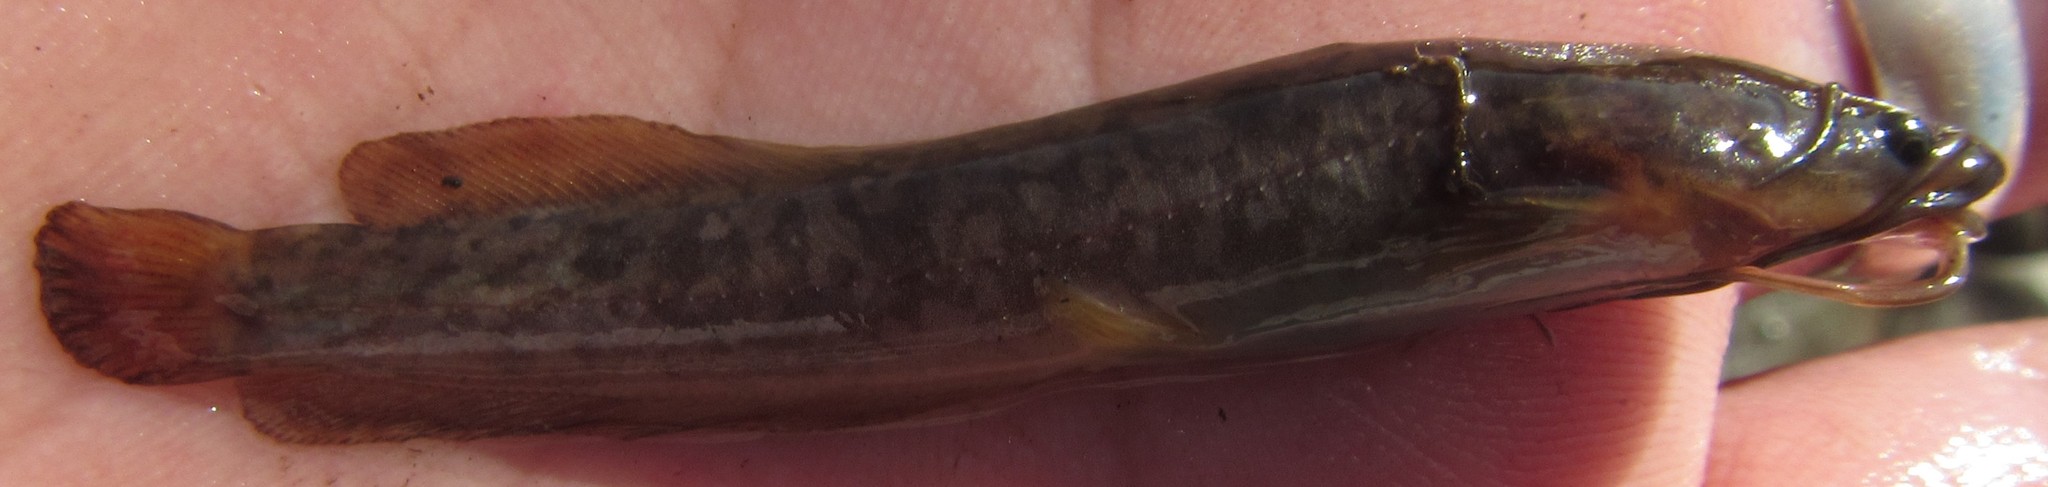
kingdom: Animalia
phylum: Chordata
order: Siluriformes
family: Clariidae
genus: Clarias
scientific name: Clarias ngamensis
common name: Blunt-toothed african catfish
